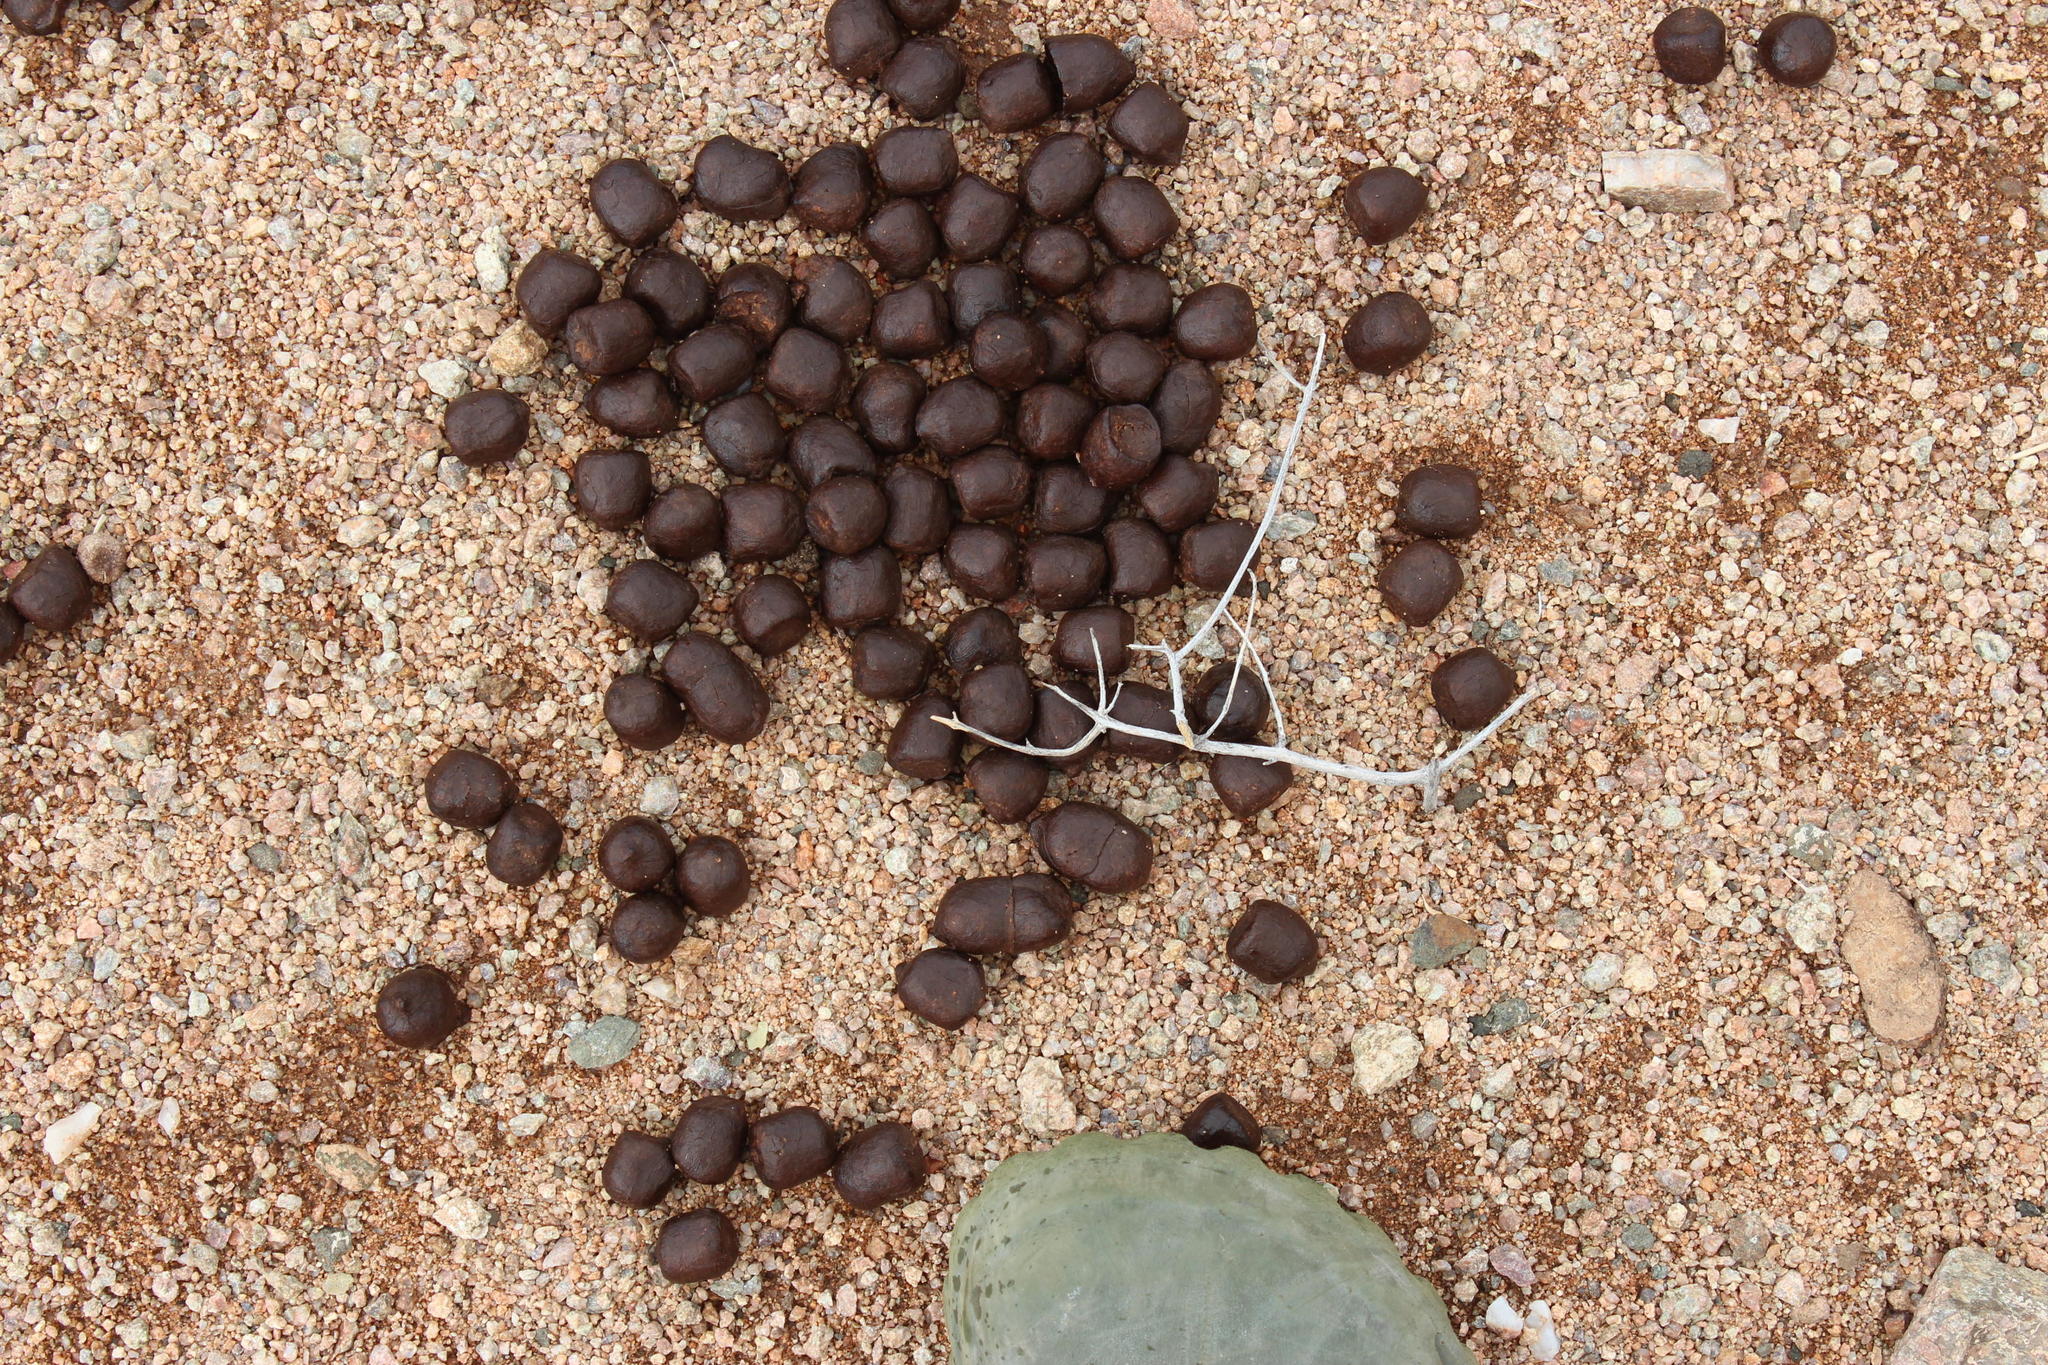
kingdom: Animalia
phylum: Chordata
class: Mammalia
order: Artiodactyla
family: Bovidae
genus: Oreotragus
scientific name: Oreotragus oreotragus
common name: Klipspringer
